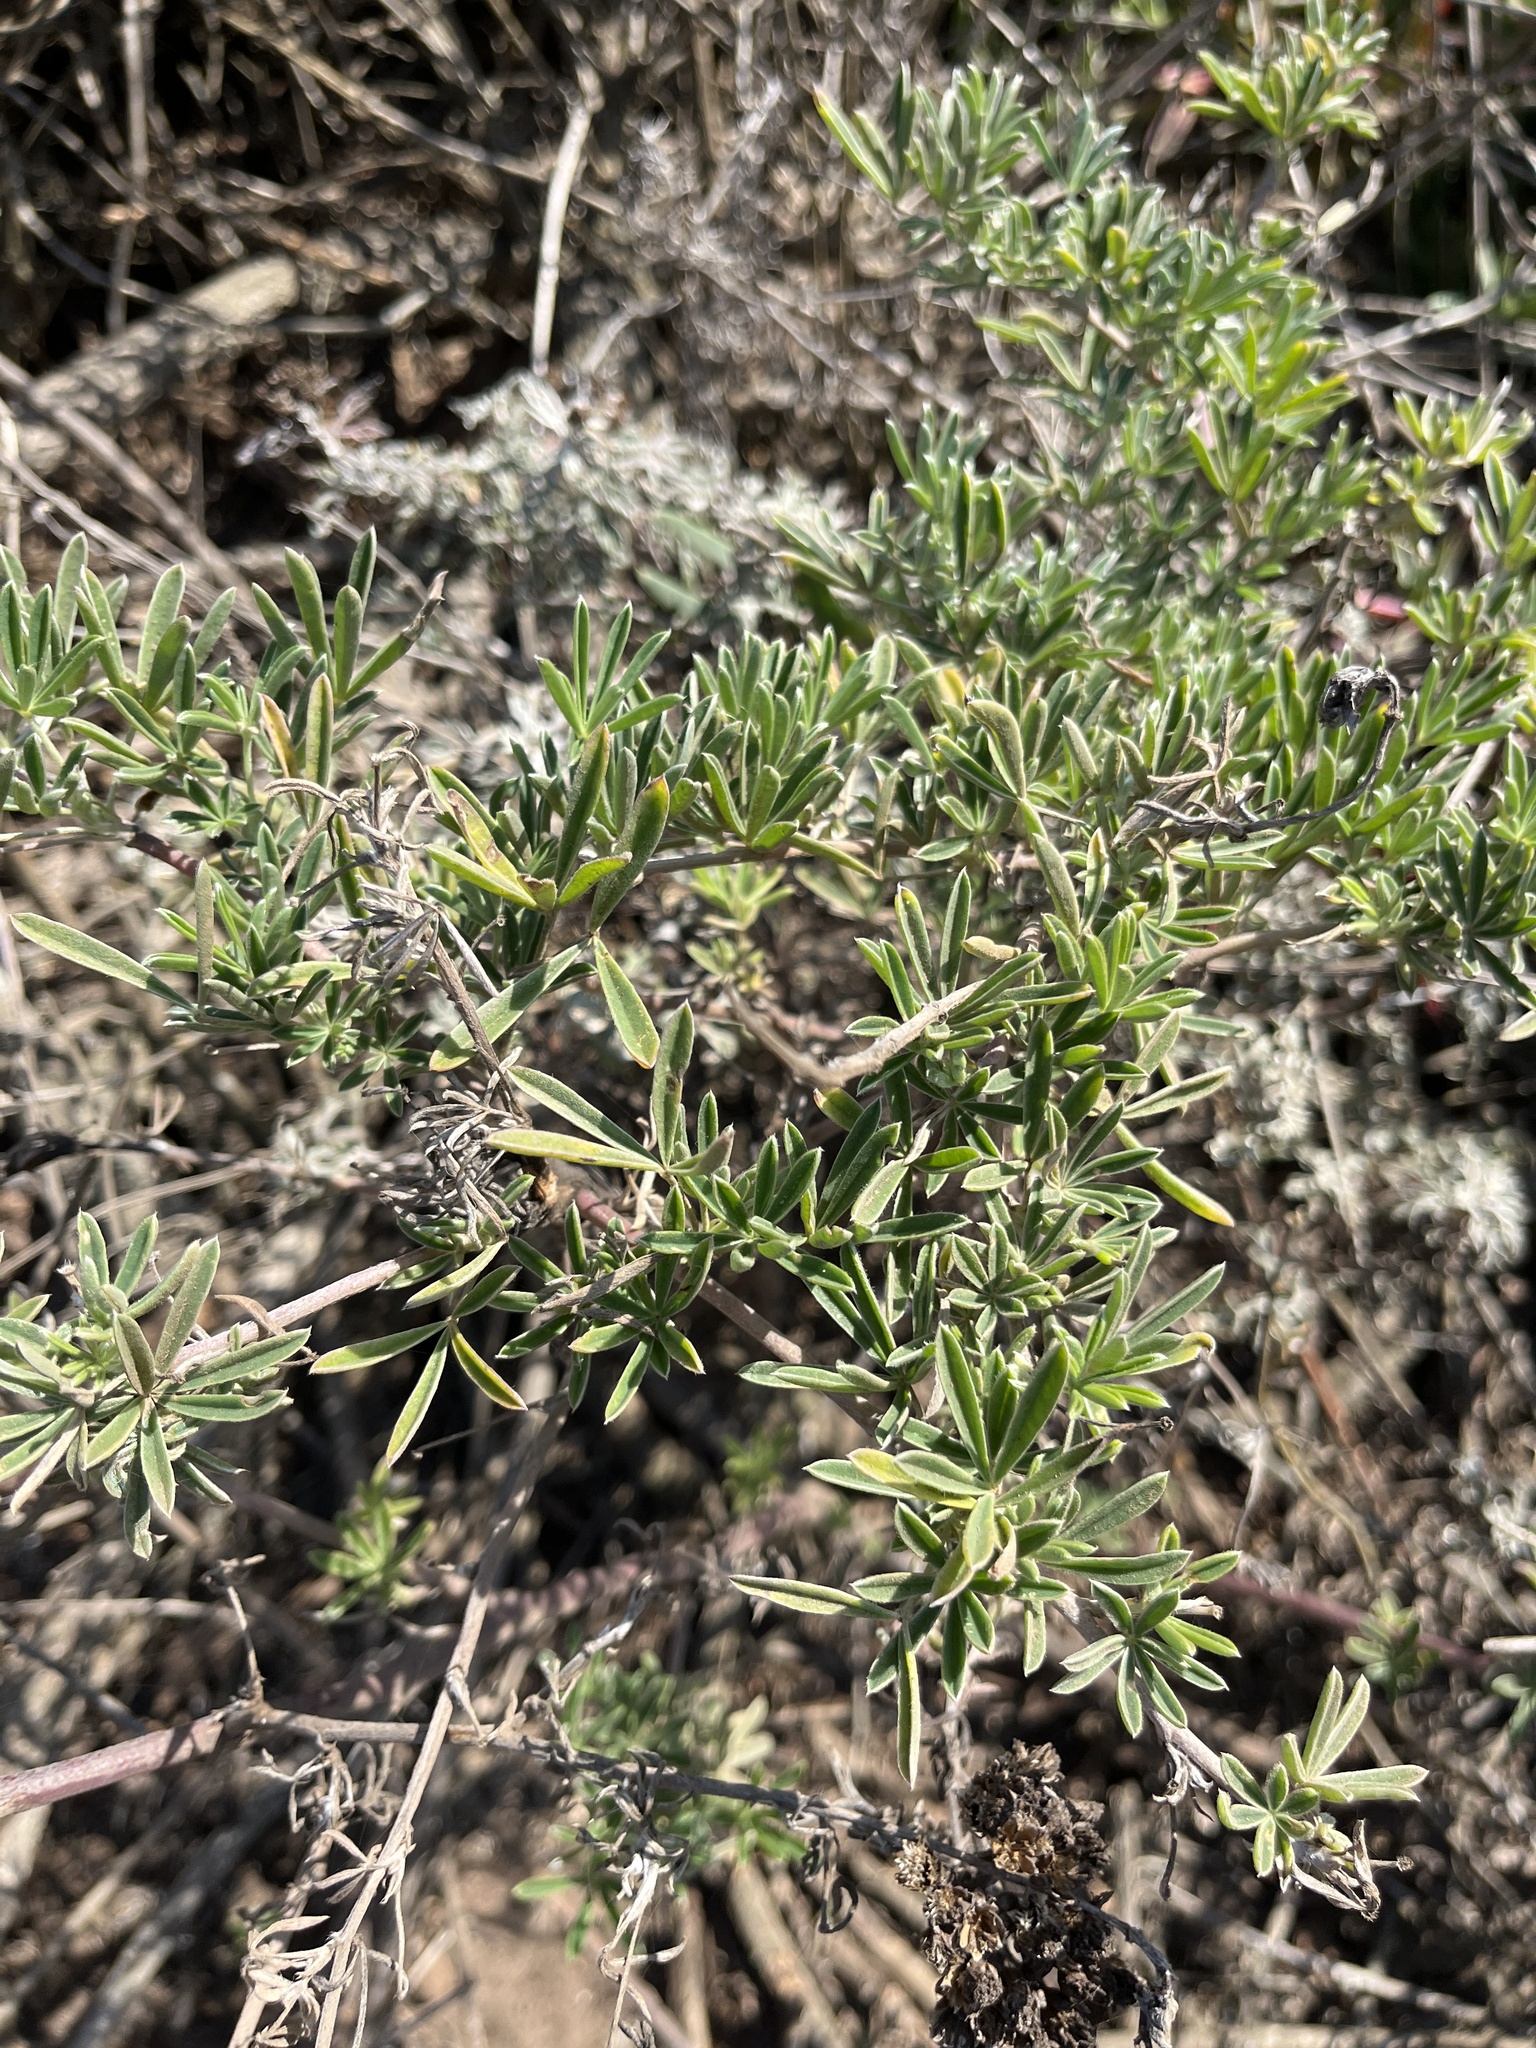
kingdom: Plantae
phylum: Tracheophyta
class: Magnoliopsida
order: Fabales
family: Fabaceae
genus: Lupinus
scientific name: Lupinus arboreus
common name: Yellow bush lupine
